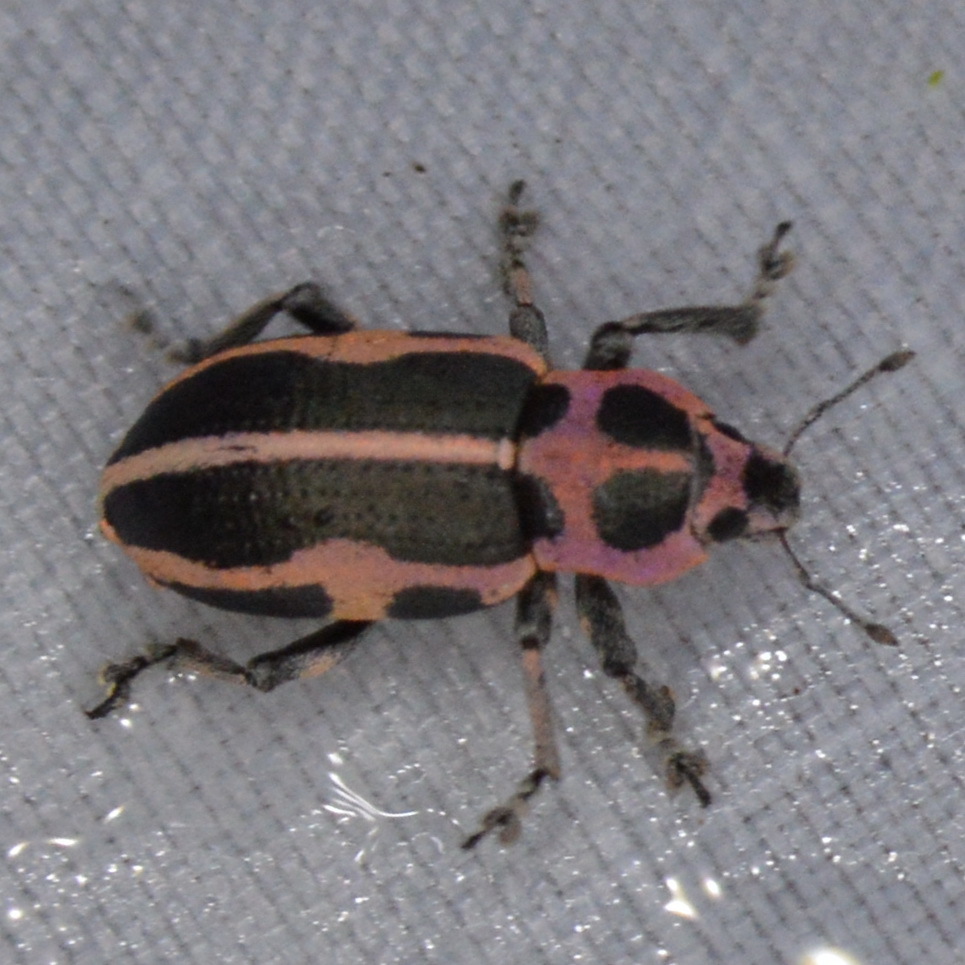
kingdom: Animalia
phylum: Arthropoda
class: Insecta
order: Coleoptera
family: Curculionidae
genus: Eudiagogus
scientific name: Eudiagogus pulcher
